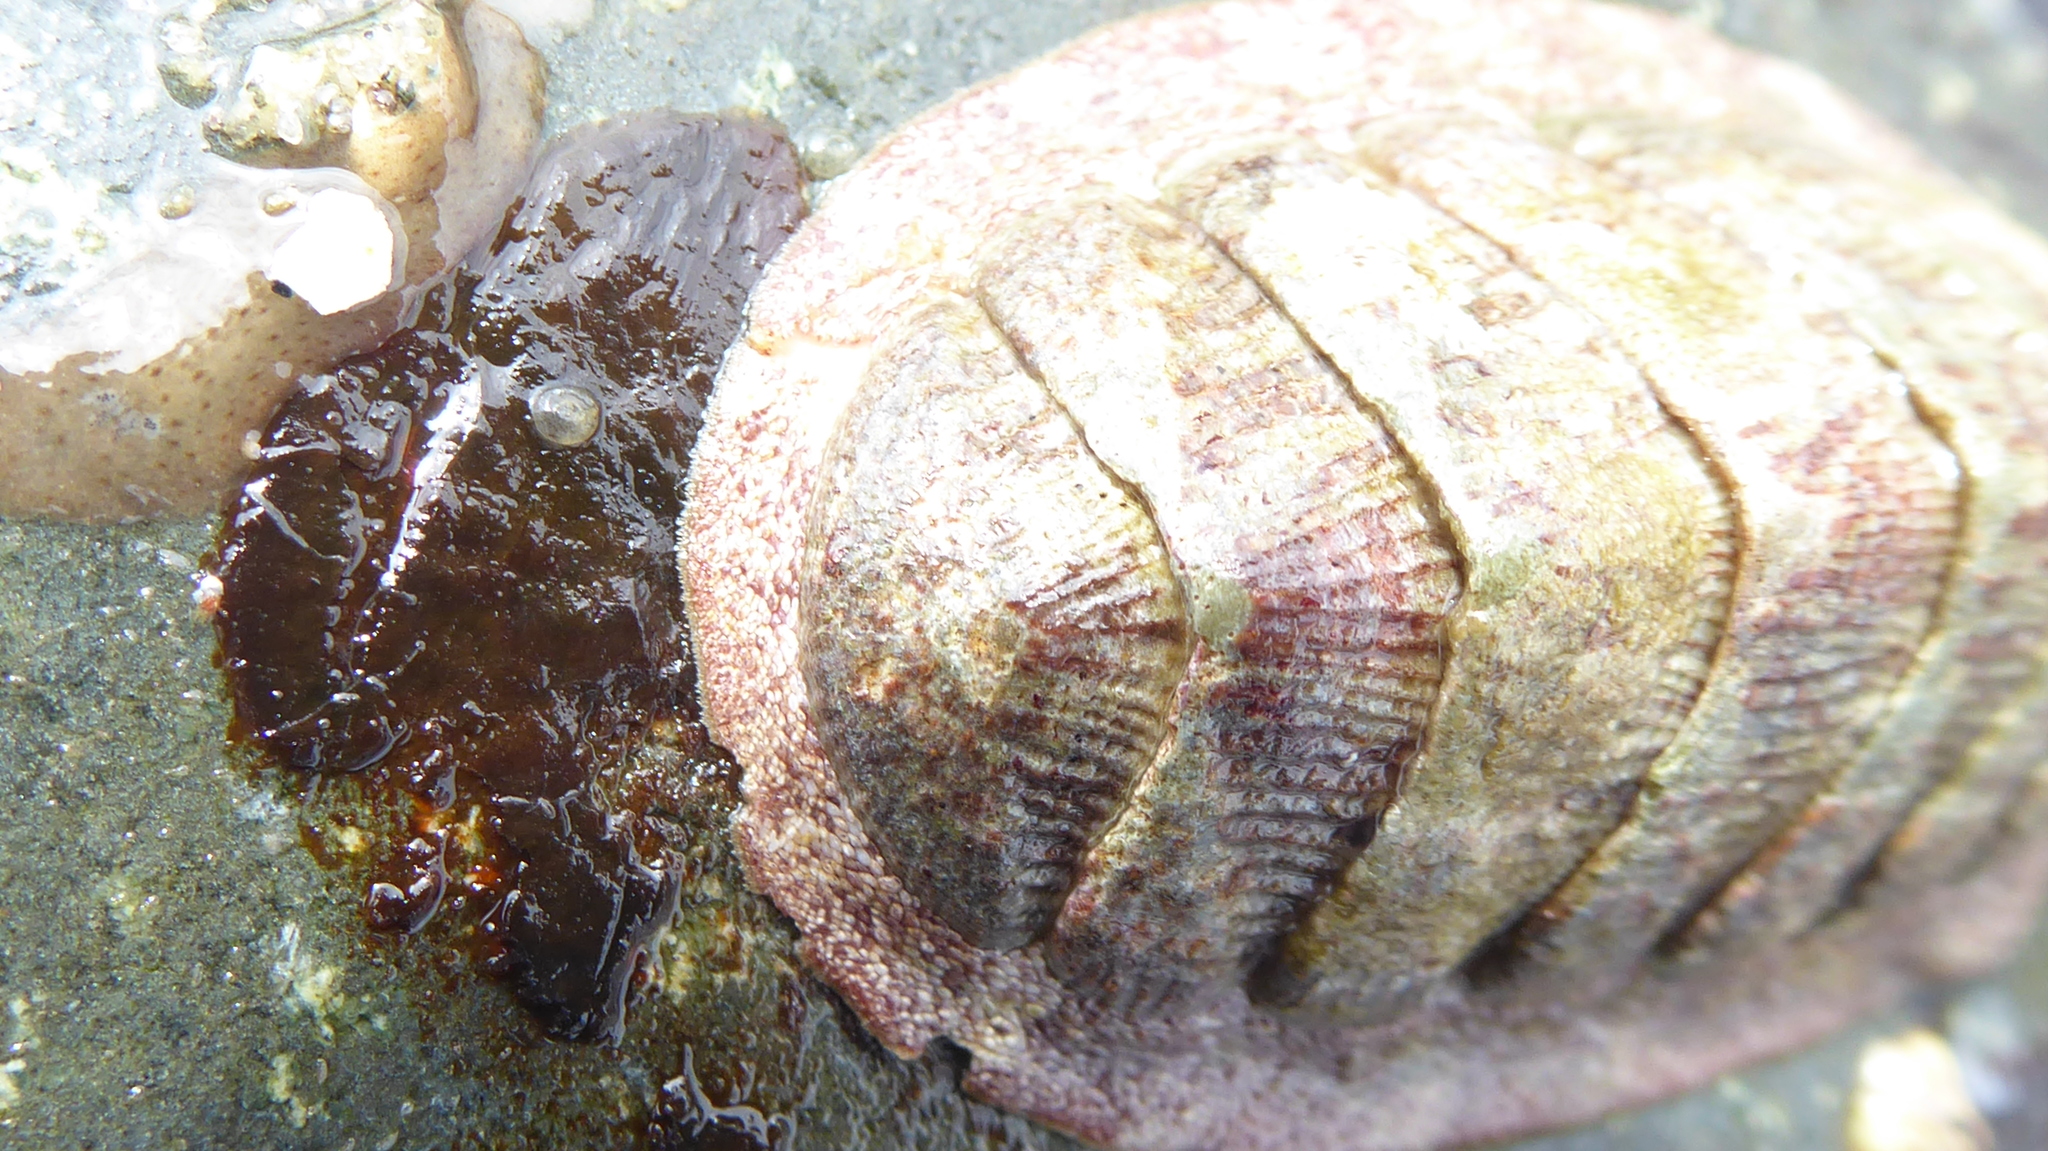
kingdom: Animalia
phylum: Mollusca
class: Polyplacophora
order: Chitonida
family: Ischnochitonidae
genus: Lepidozona
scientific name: Lepidozona mertensii
